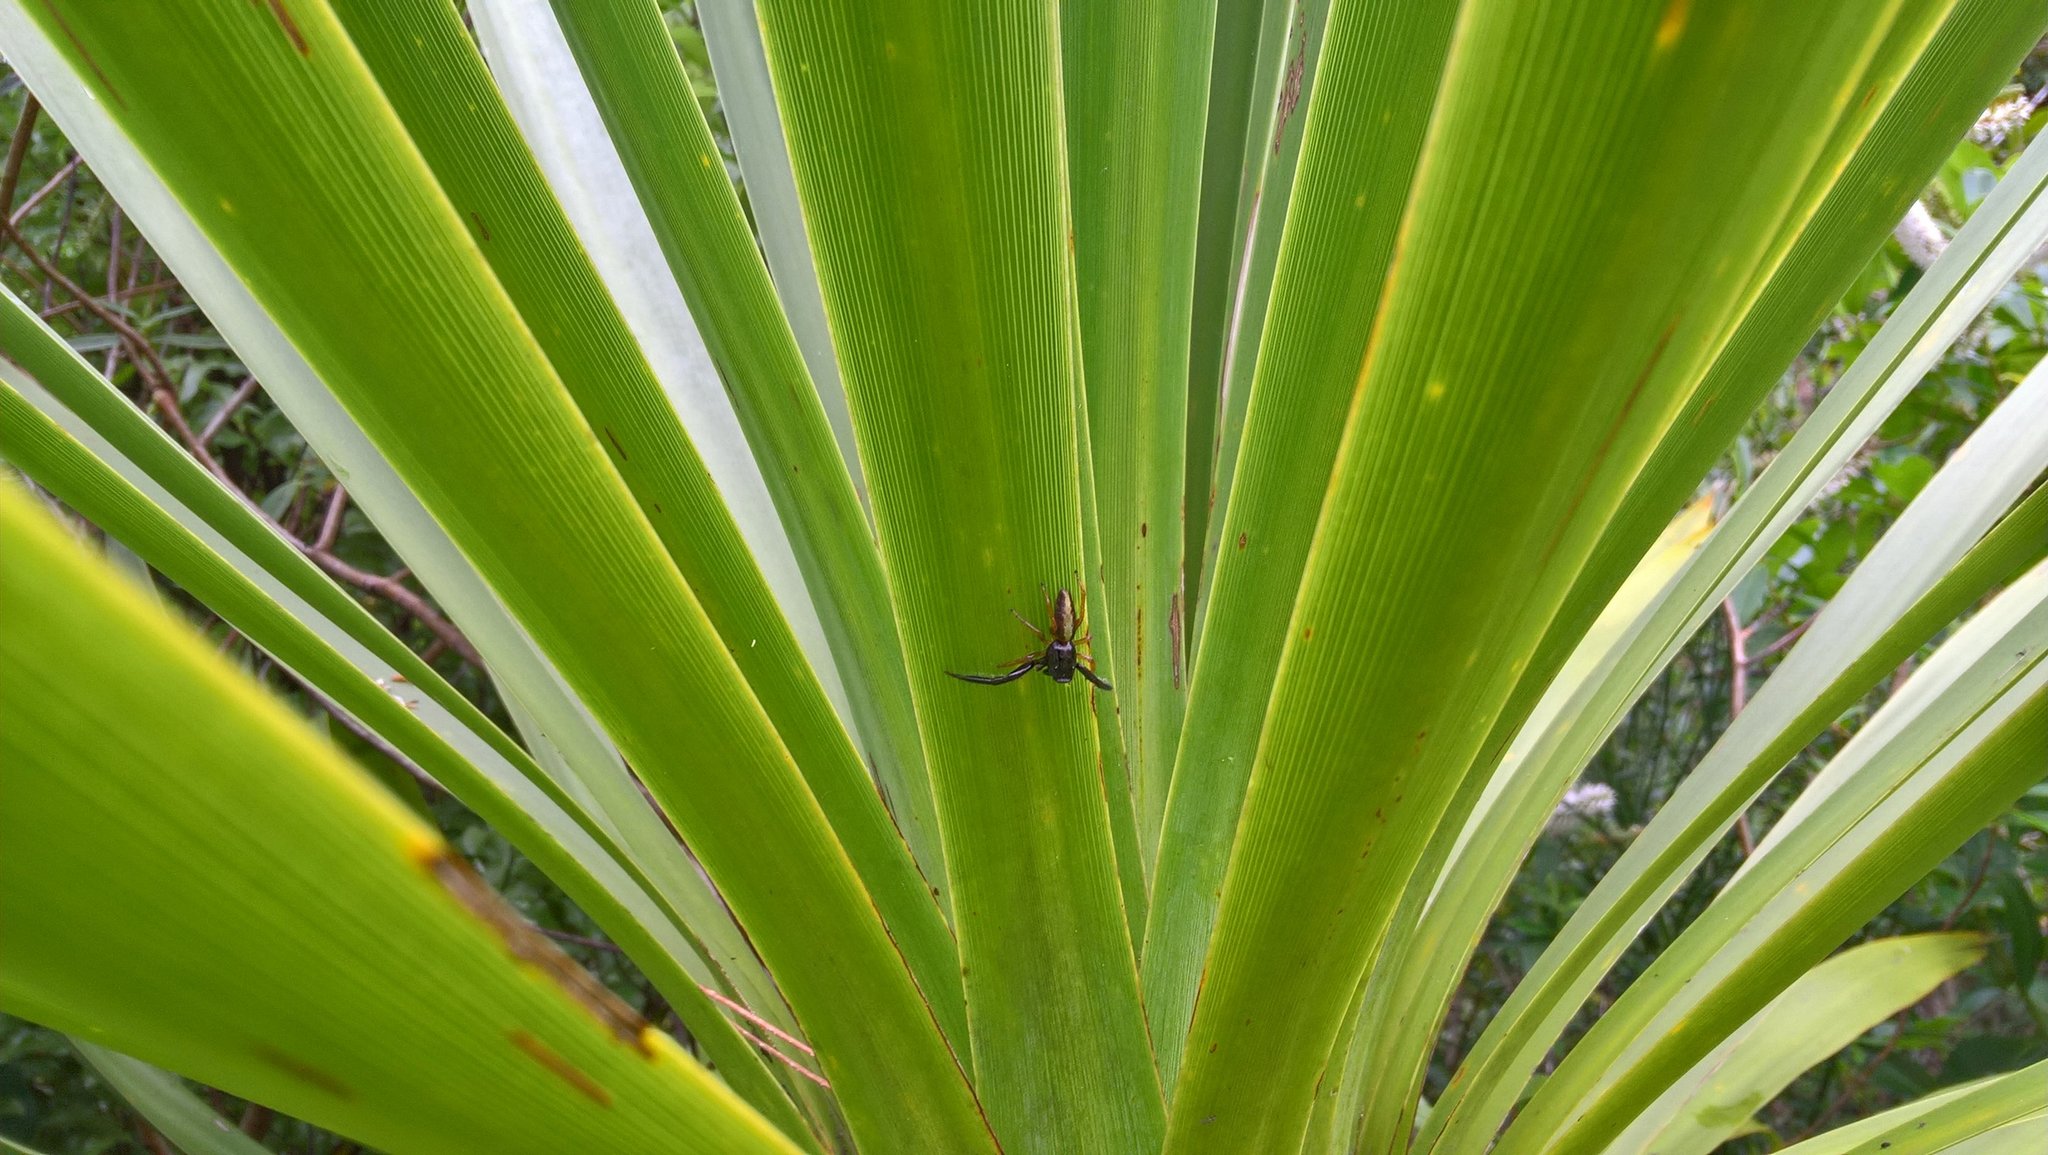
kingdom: Animalia
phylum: Arthropoda
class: Arachnida
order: Araneae
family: Salticidae
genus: Trite
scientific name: Trite planiceps
